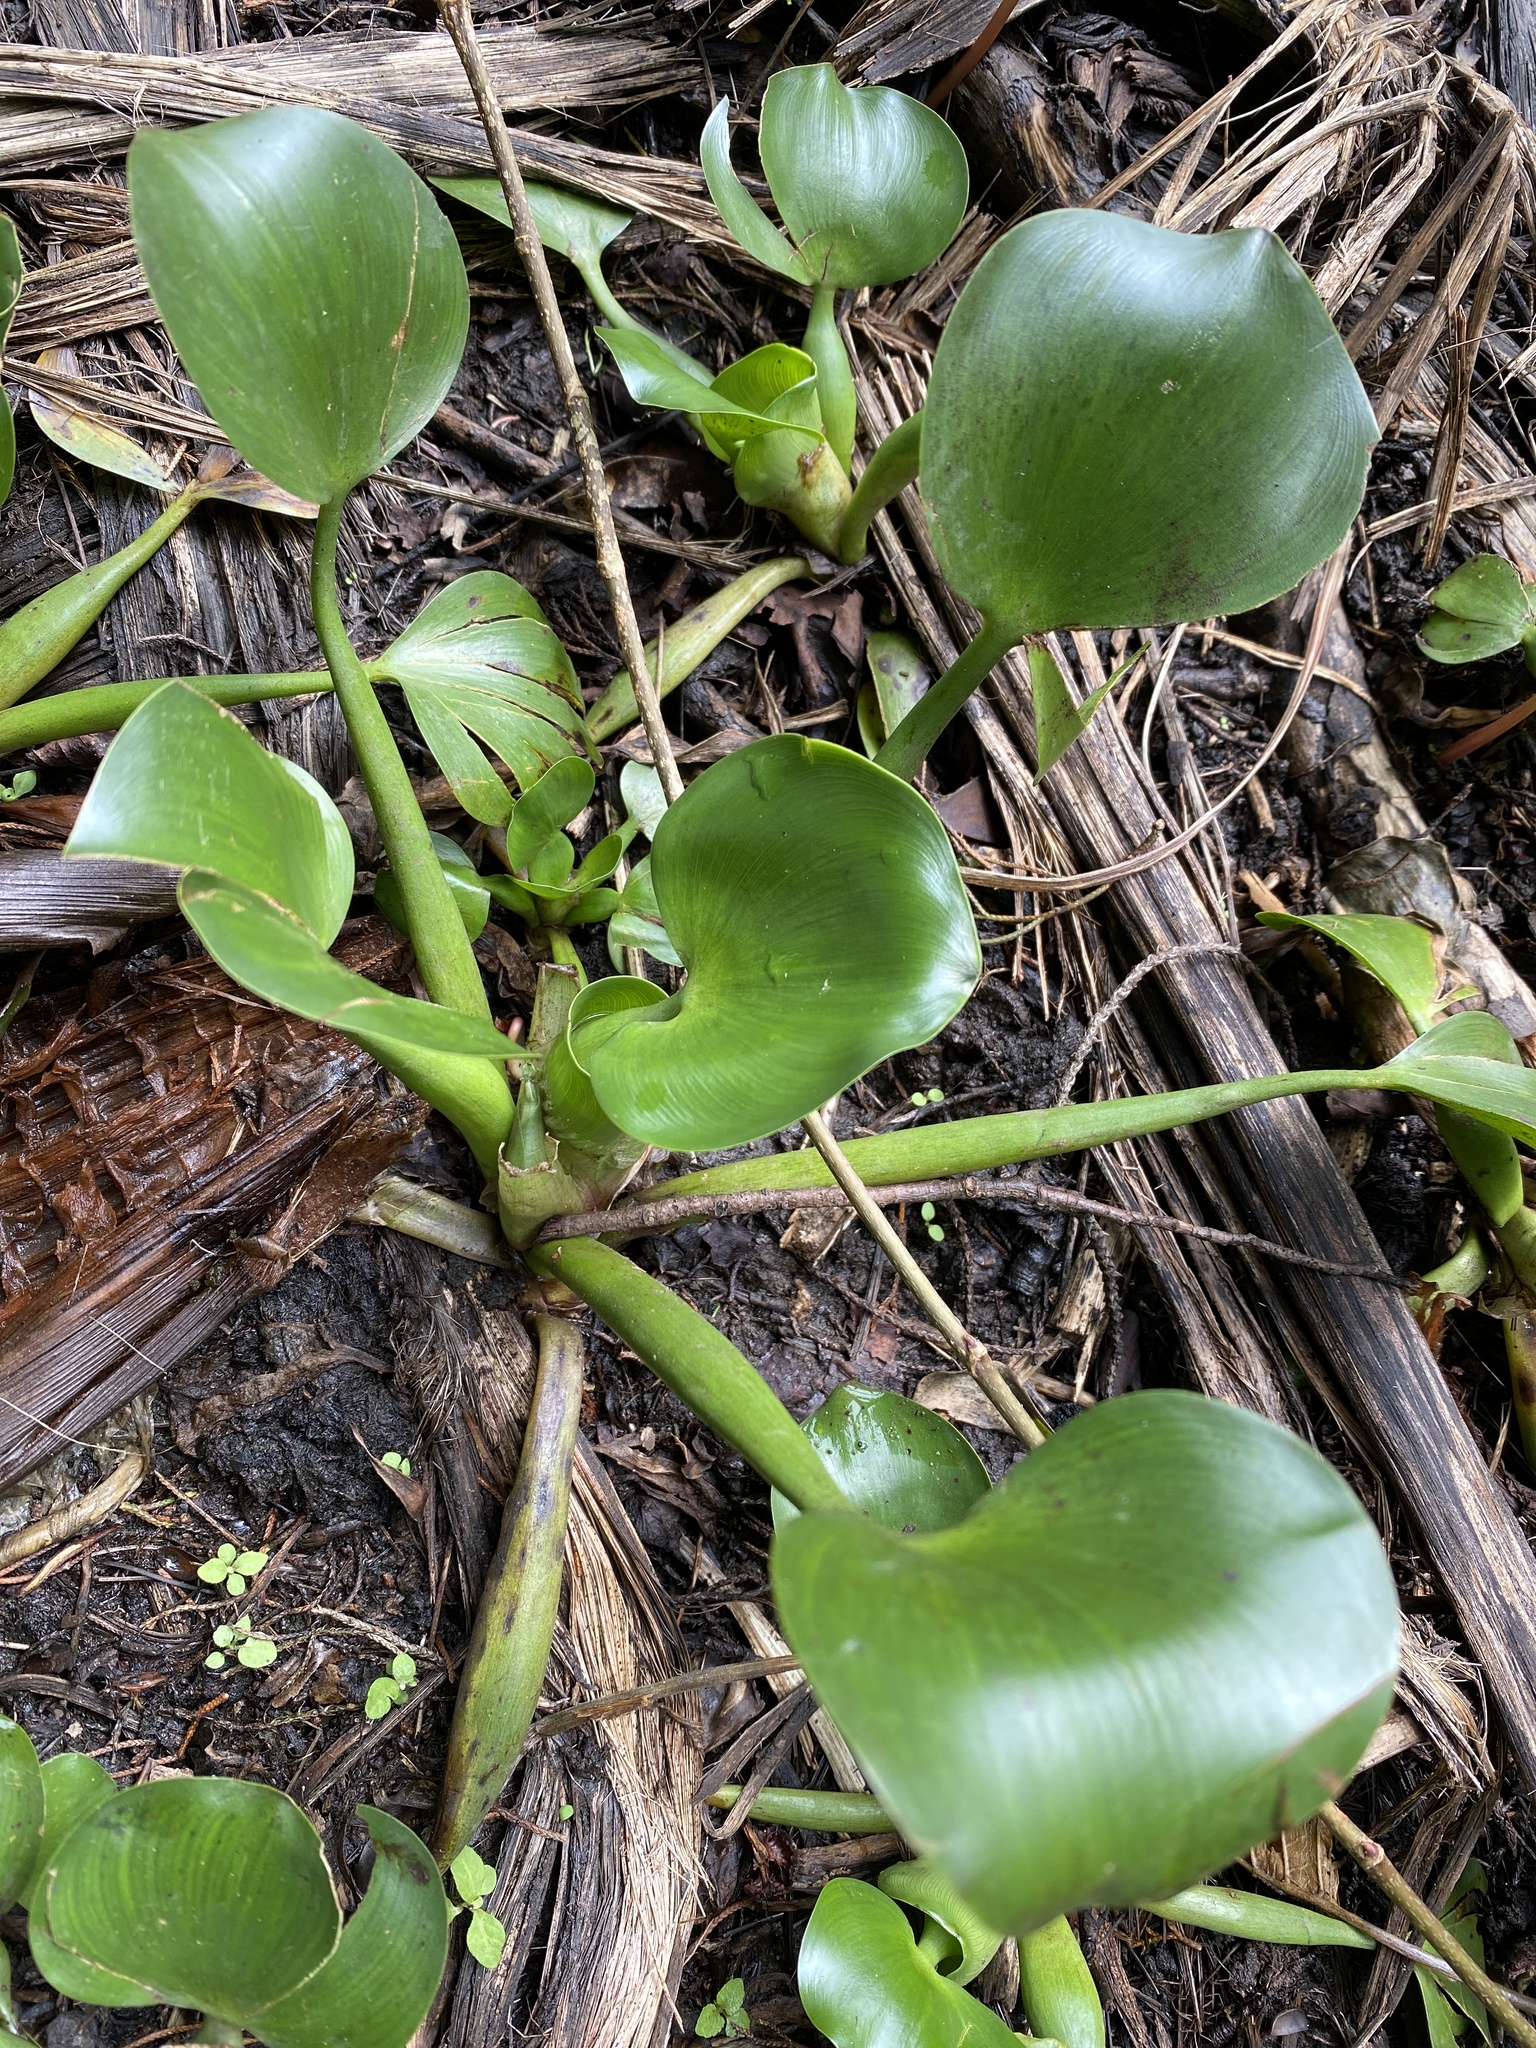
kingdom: Plantae
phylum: Tracheophyta
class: Liliopsida
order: Commelinales
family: Pontederiaceae
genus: Pontederia
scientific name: Pontederia crassipes
